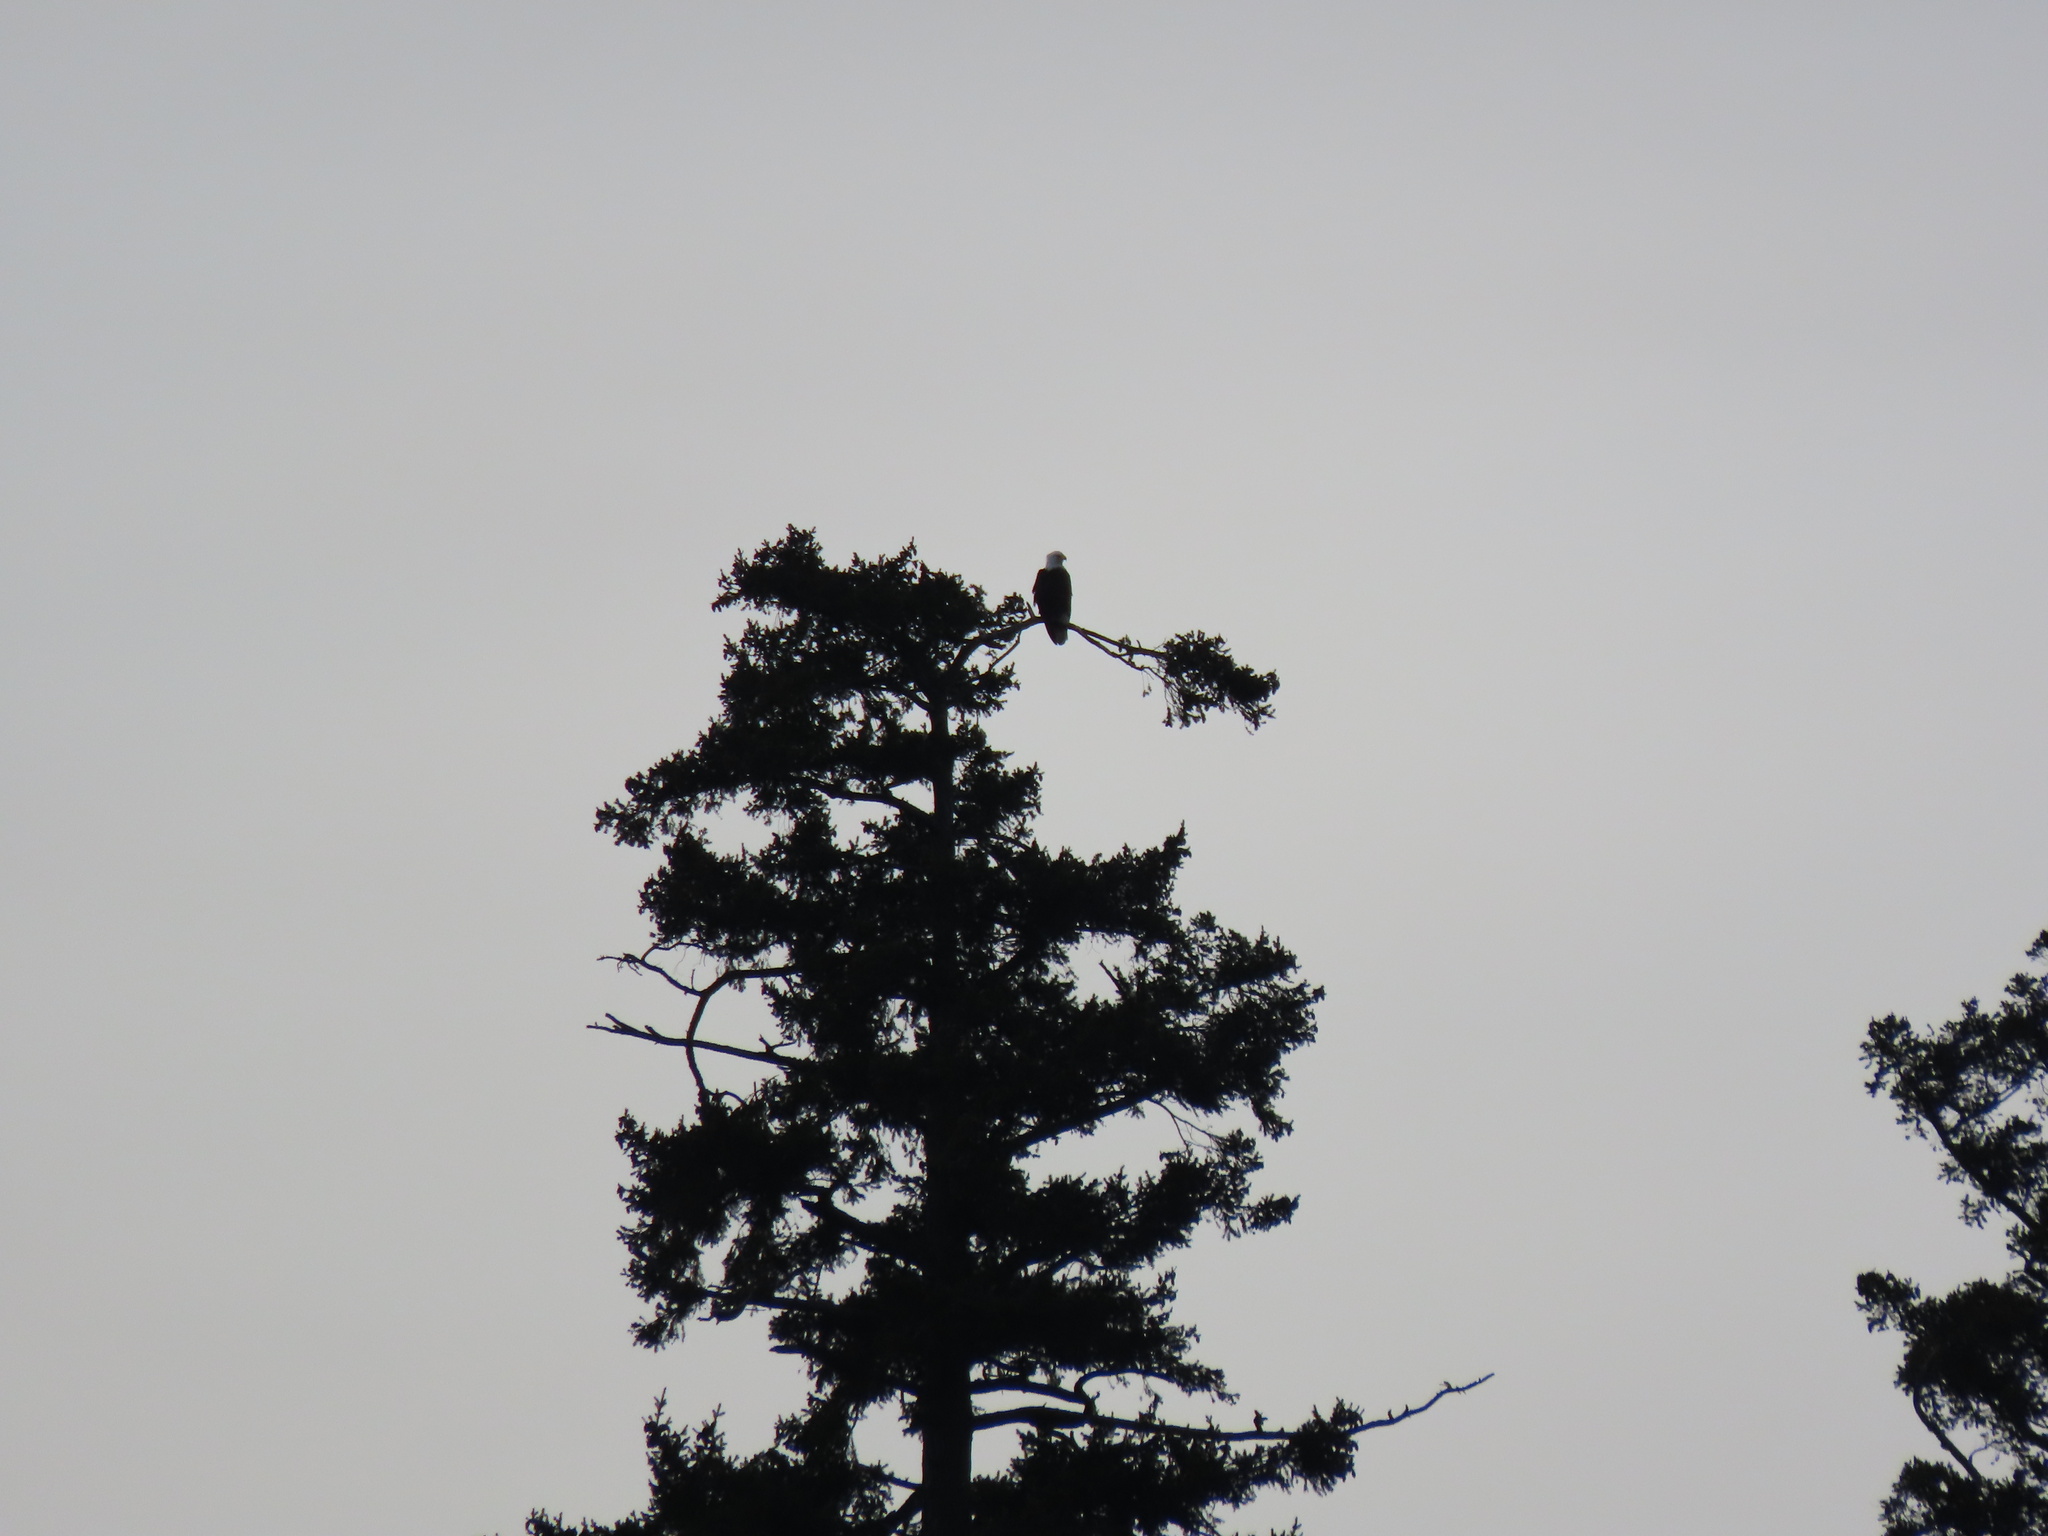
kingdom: Animalia
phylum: Chordata
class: Aves
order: Accipitriformes
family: Accipitridae
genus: Haliaeetus
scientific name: Haliaeetus leucocephalus
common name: Bald eagle
